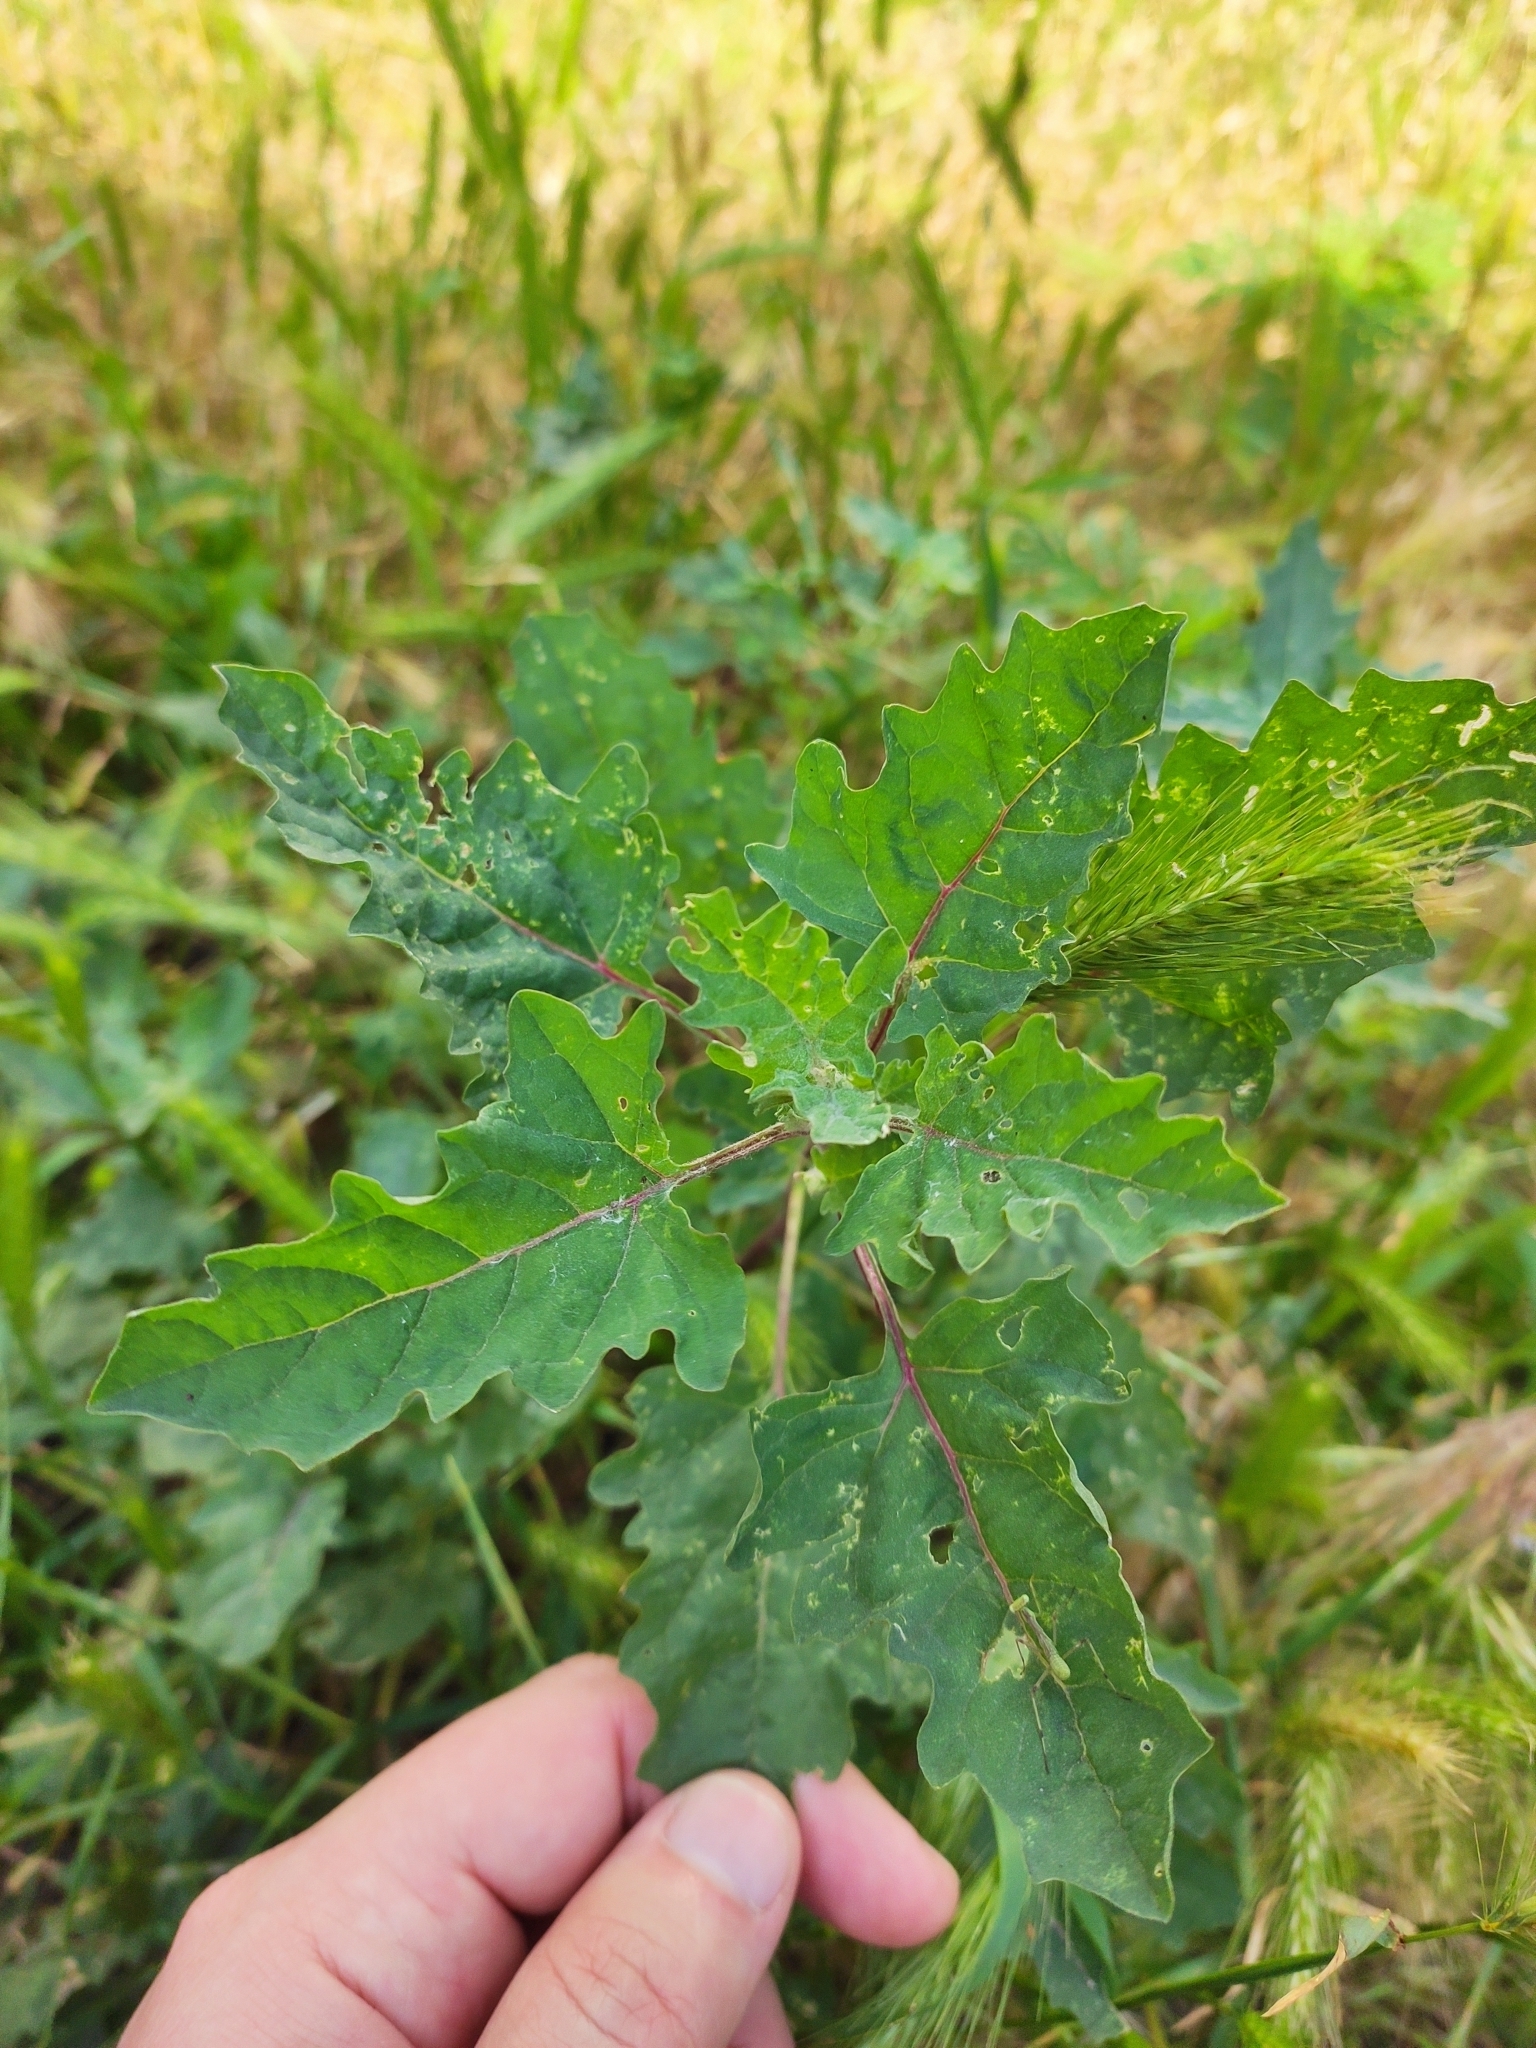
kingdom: Plantae
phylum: Tracheophyta
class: Magnoliopsida
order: Caryophyllales
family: Amaranthaceae
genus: Atriplex
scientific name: Atriplex tatarica
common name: Tatarian orache
